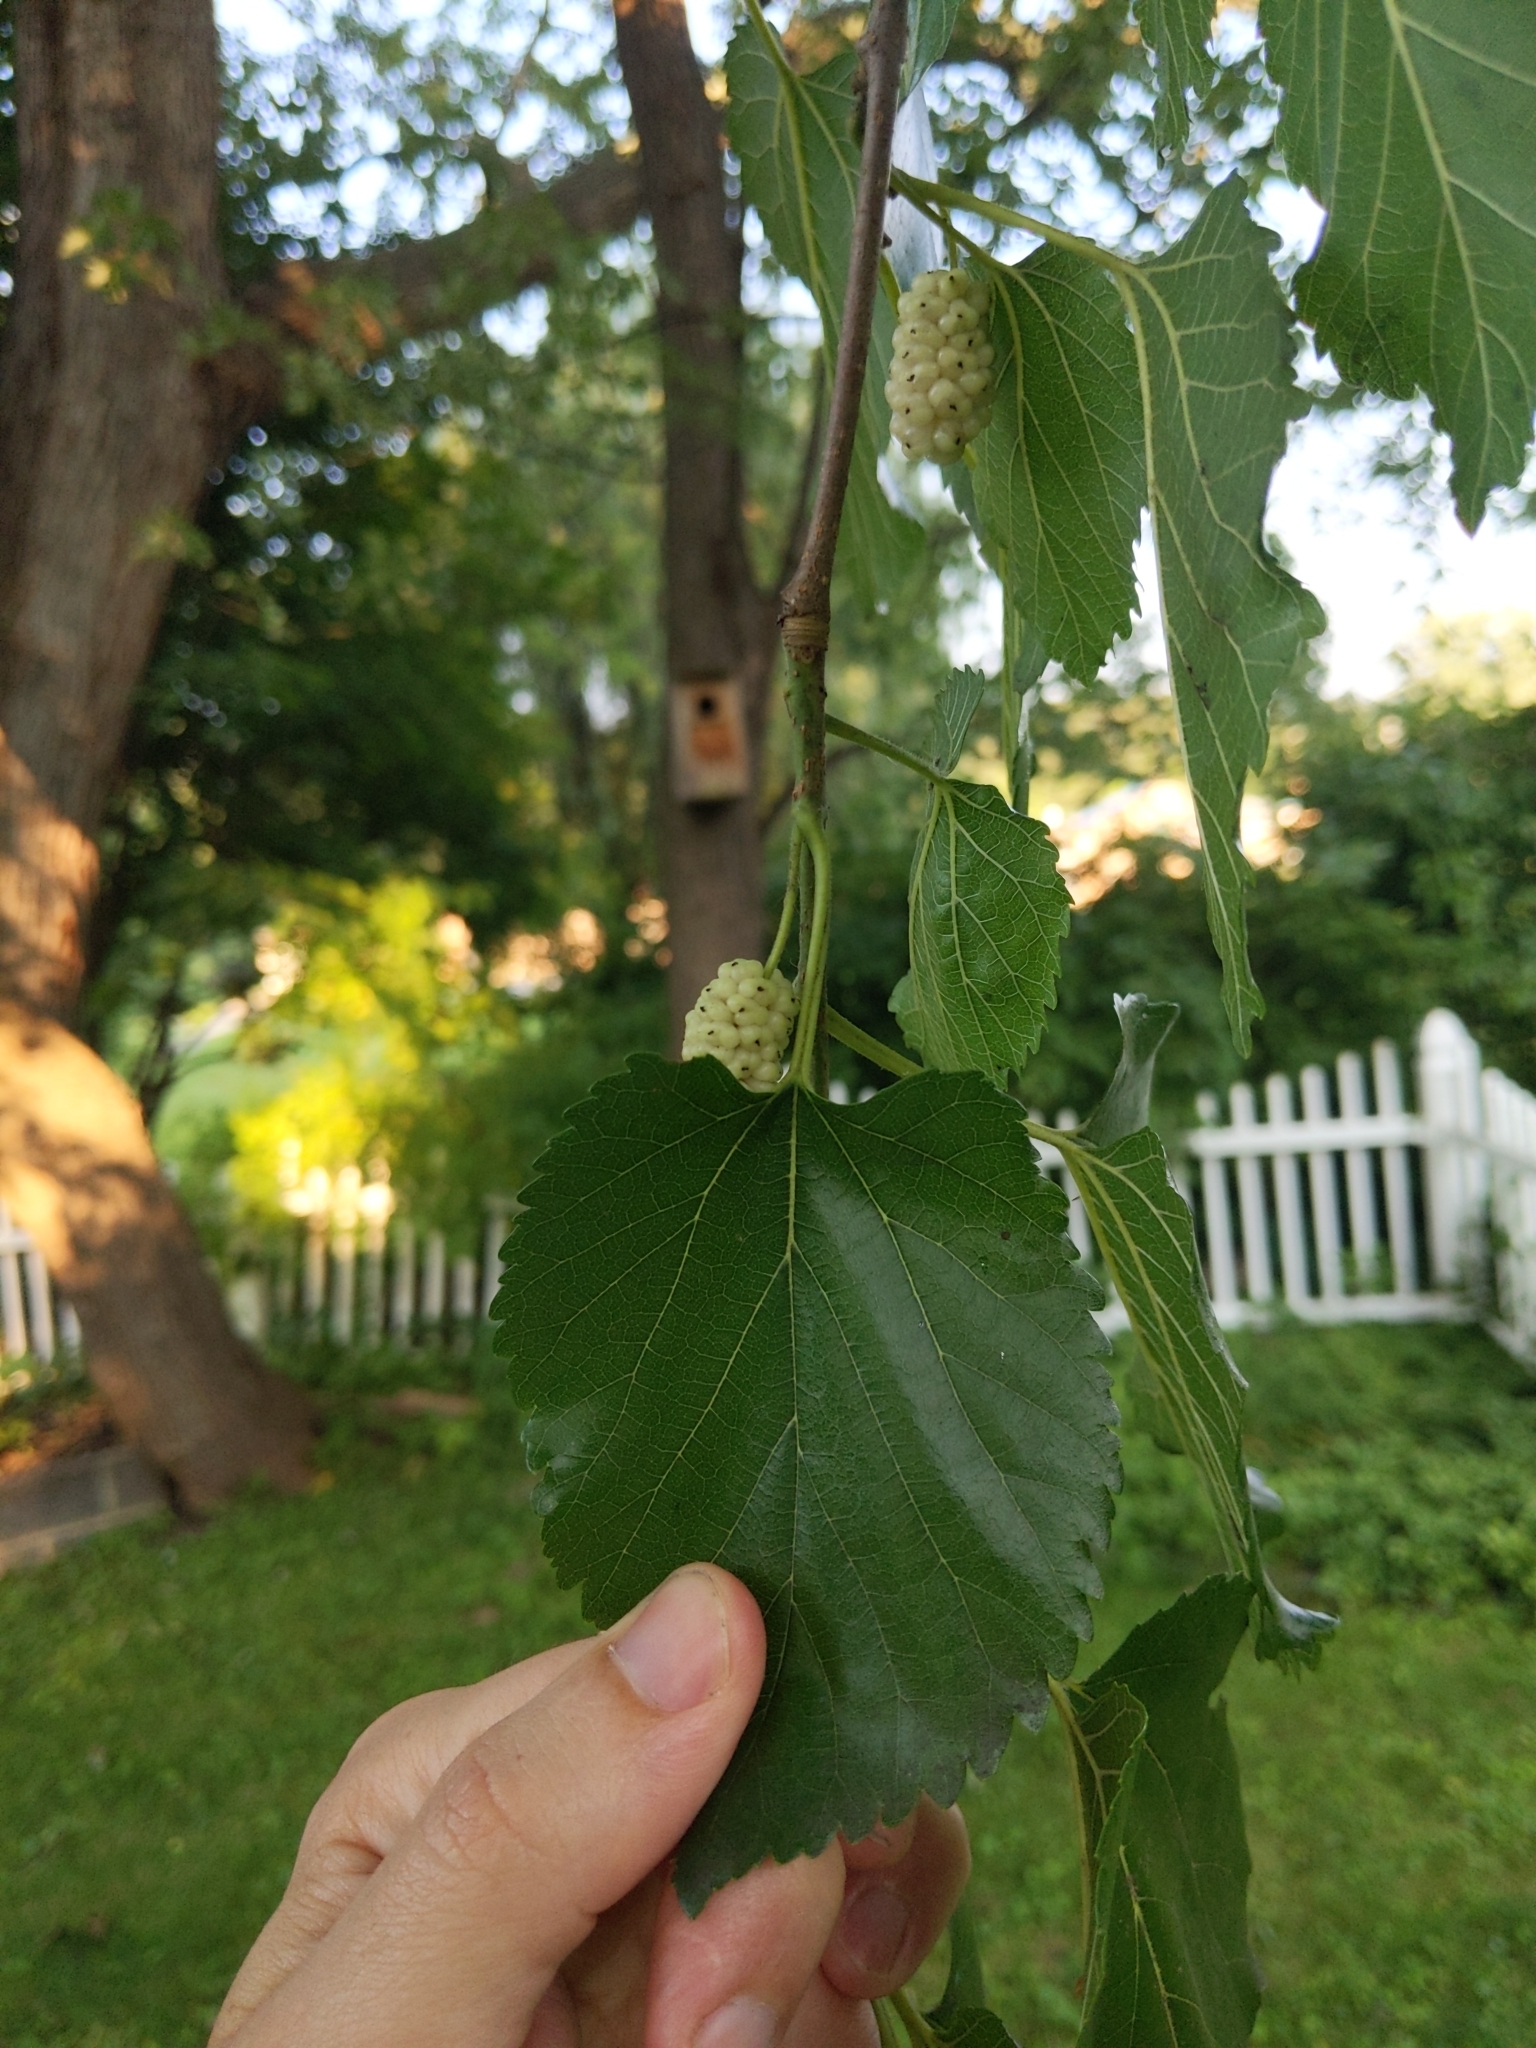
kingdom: Plantae
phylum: Tracheophyta
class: Magnoliopsida
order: Rosales
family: Moraceae
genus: Morus
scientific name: Morus alba
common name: White mulberry
